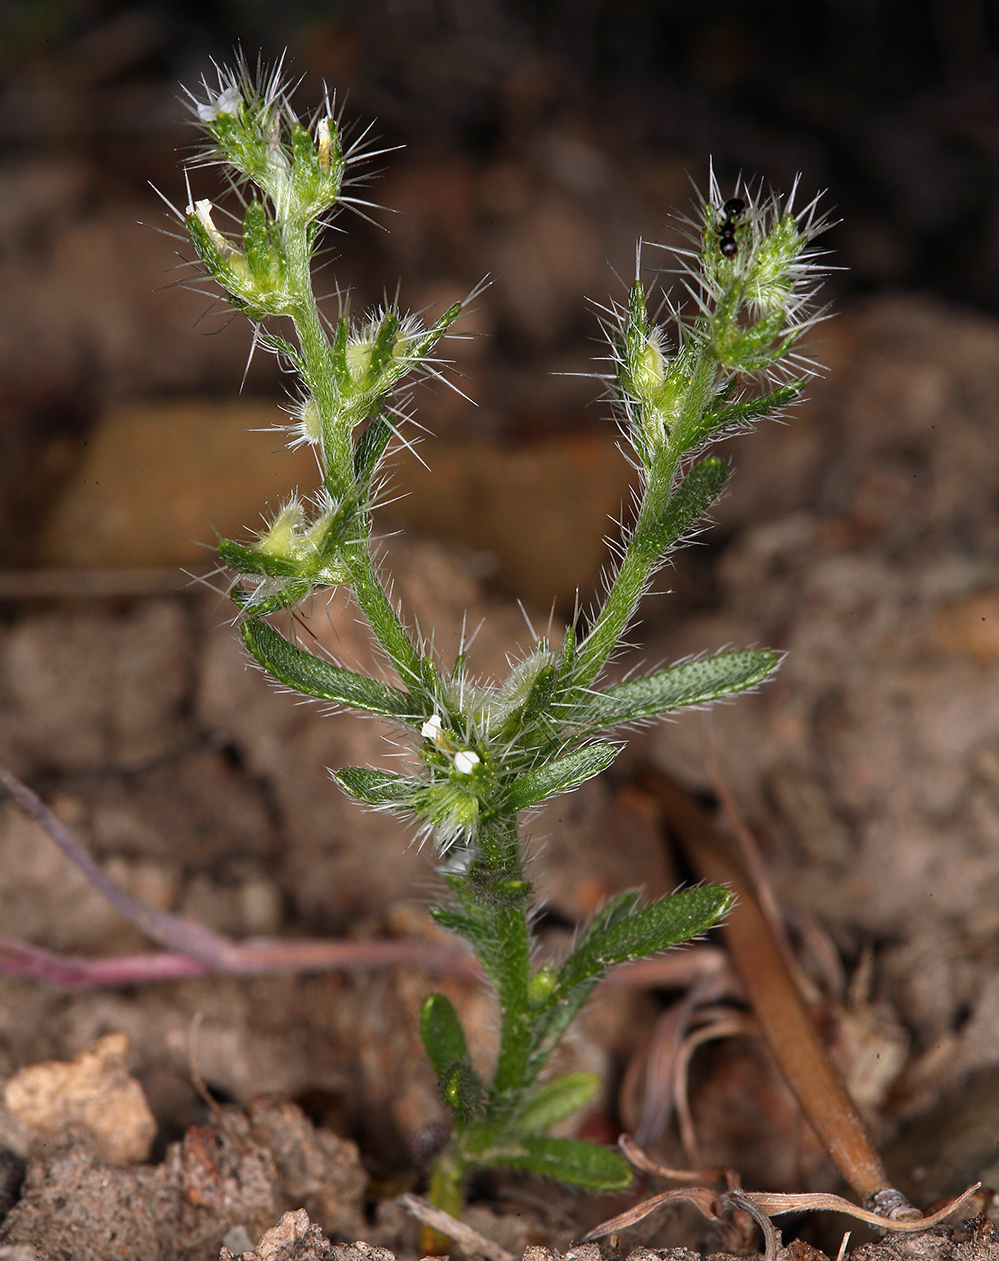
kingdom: Plantae
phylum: Tracheophyta
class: Magnoliopsida
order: Boraginales
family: Boraginaceae
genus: Pectocarya
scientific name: Pectocarya setosa
